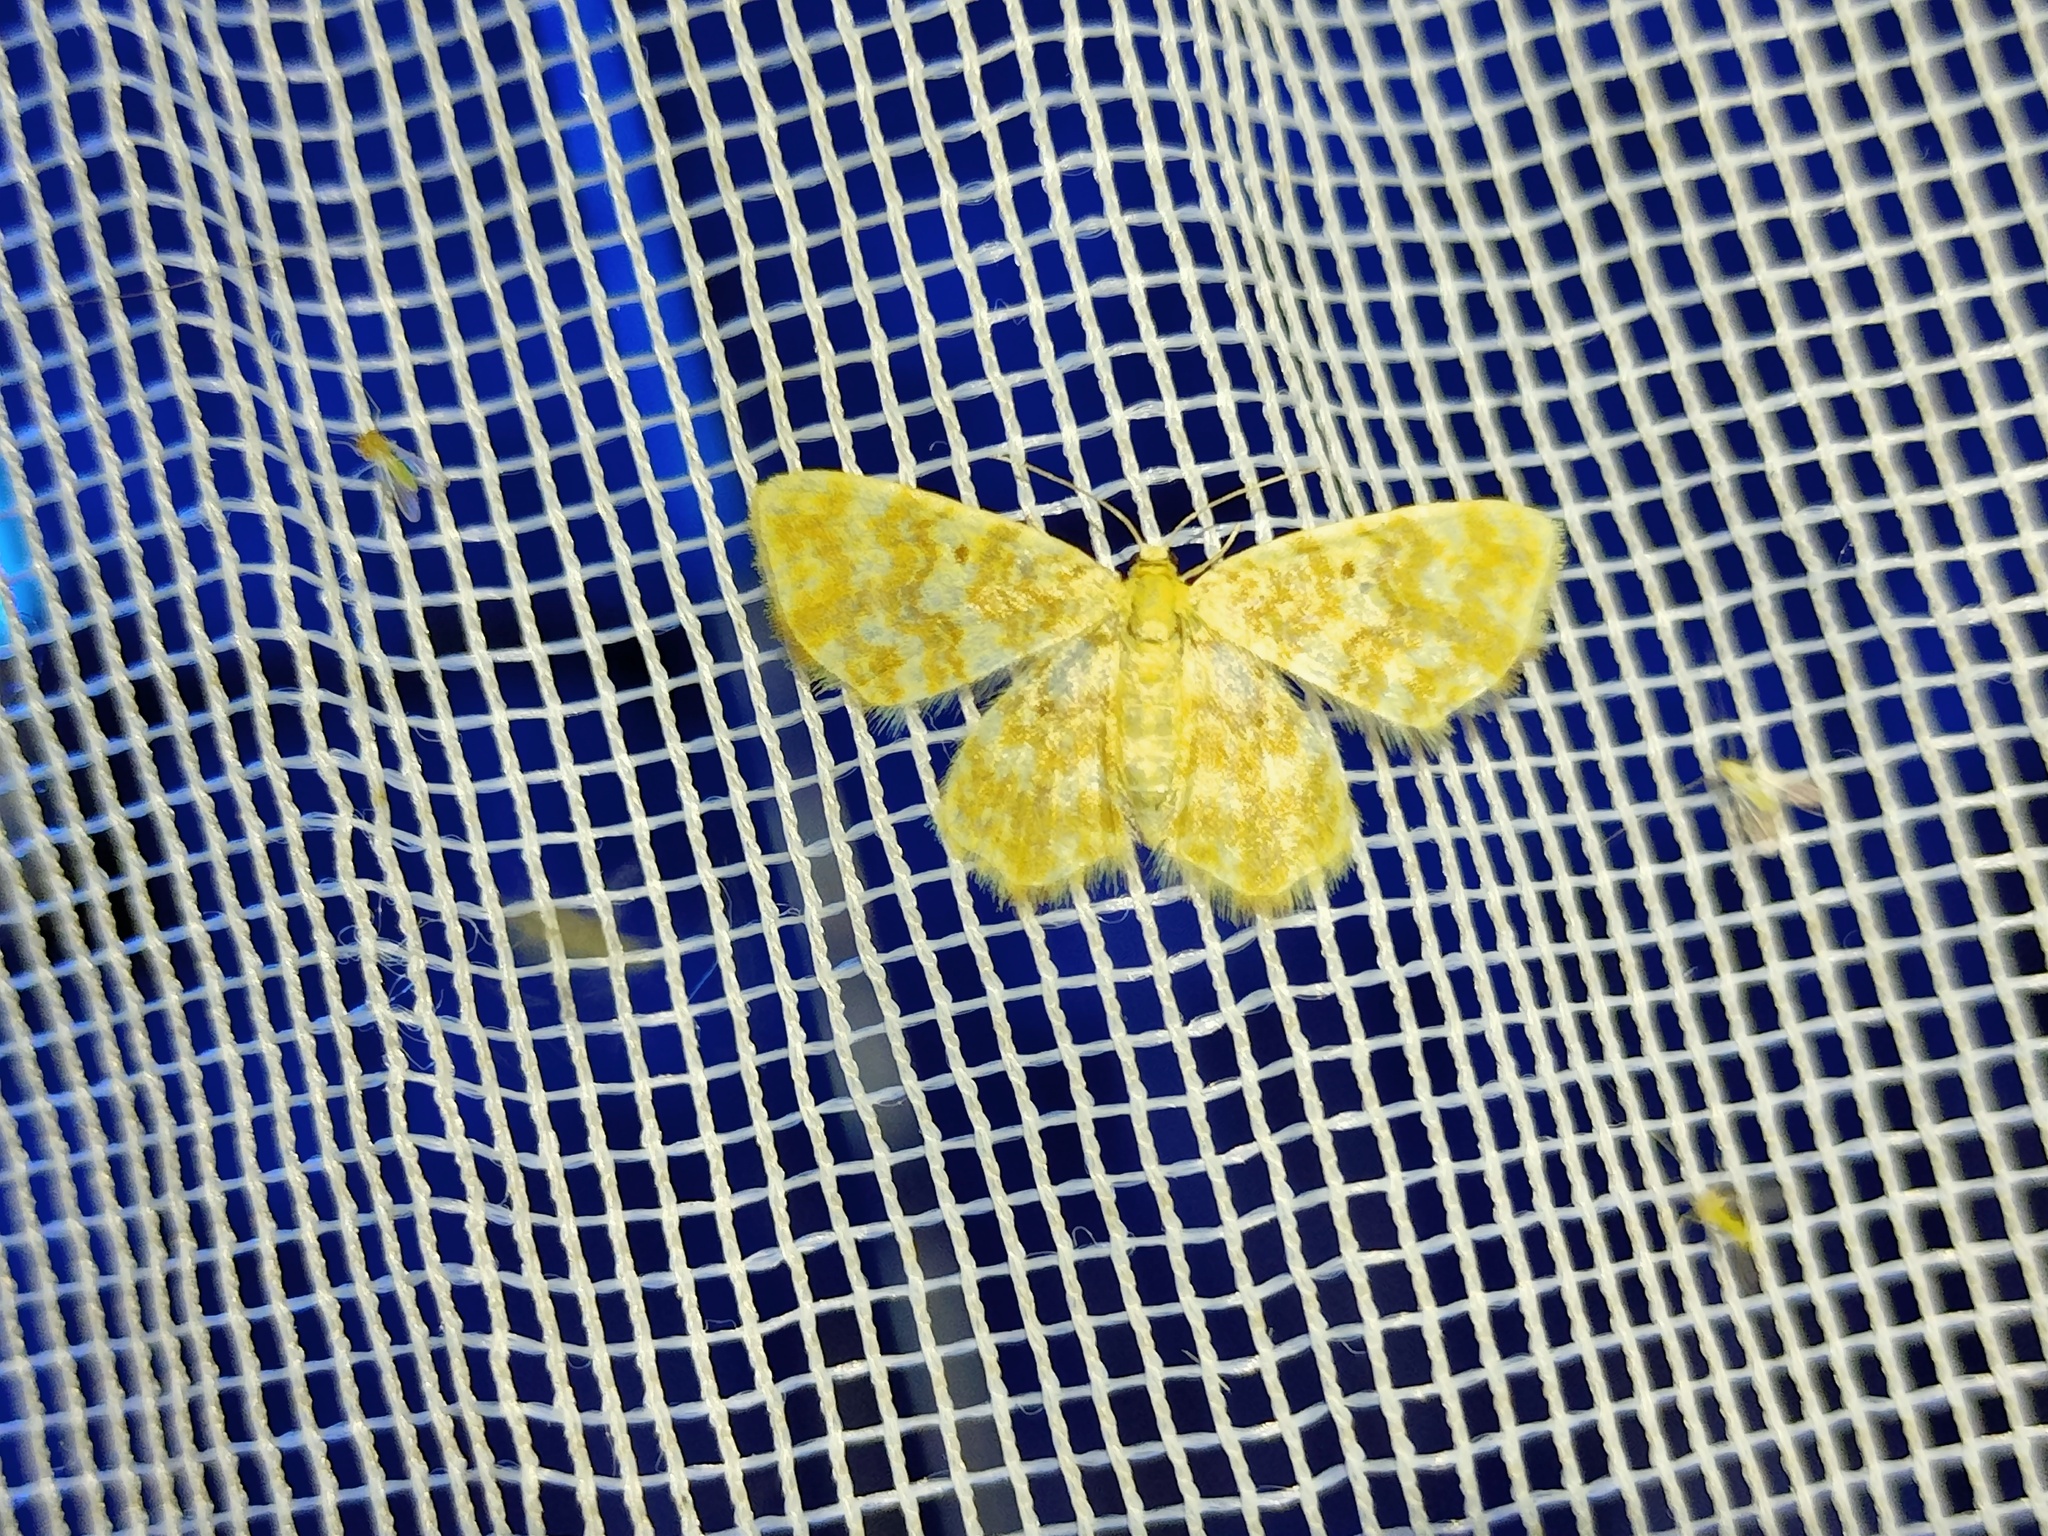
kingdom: Animalia
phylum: Arthropoda
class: Insecta
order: Lepidoptera
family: Geometridae
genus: Hydrelia
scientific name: Hydrelia flammeolaria
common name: Small yellow wave
